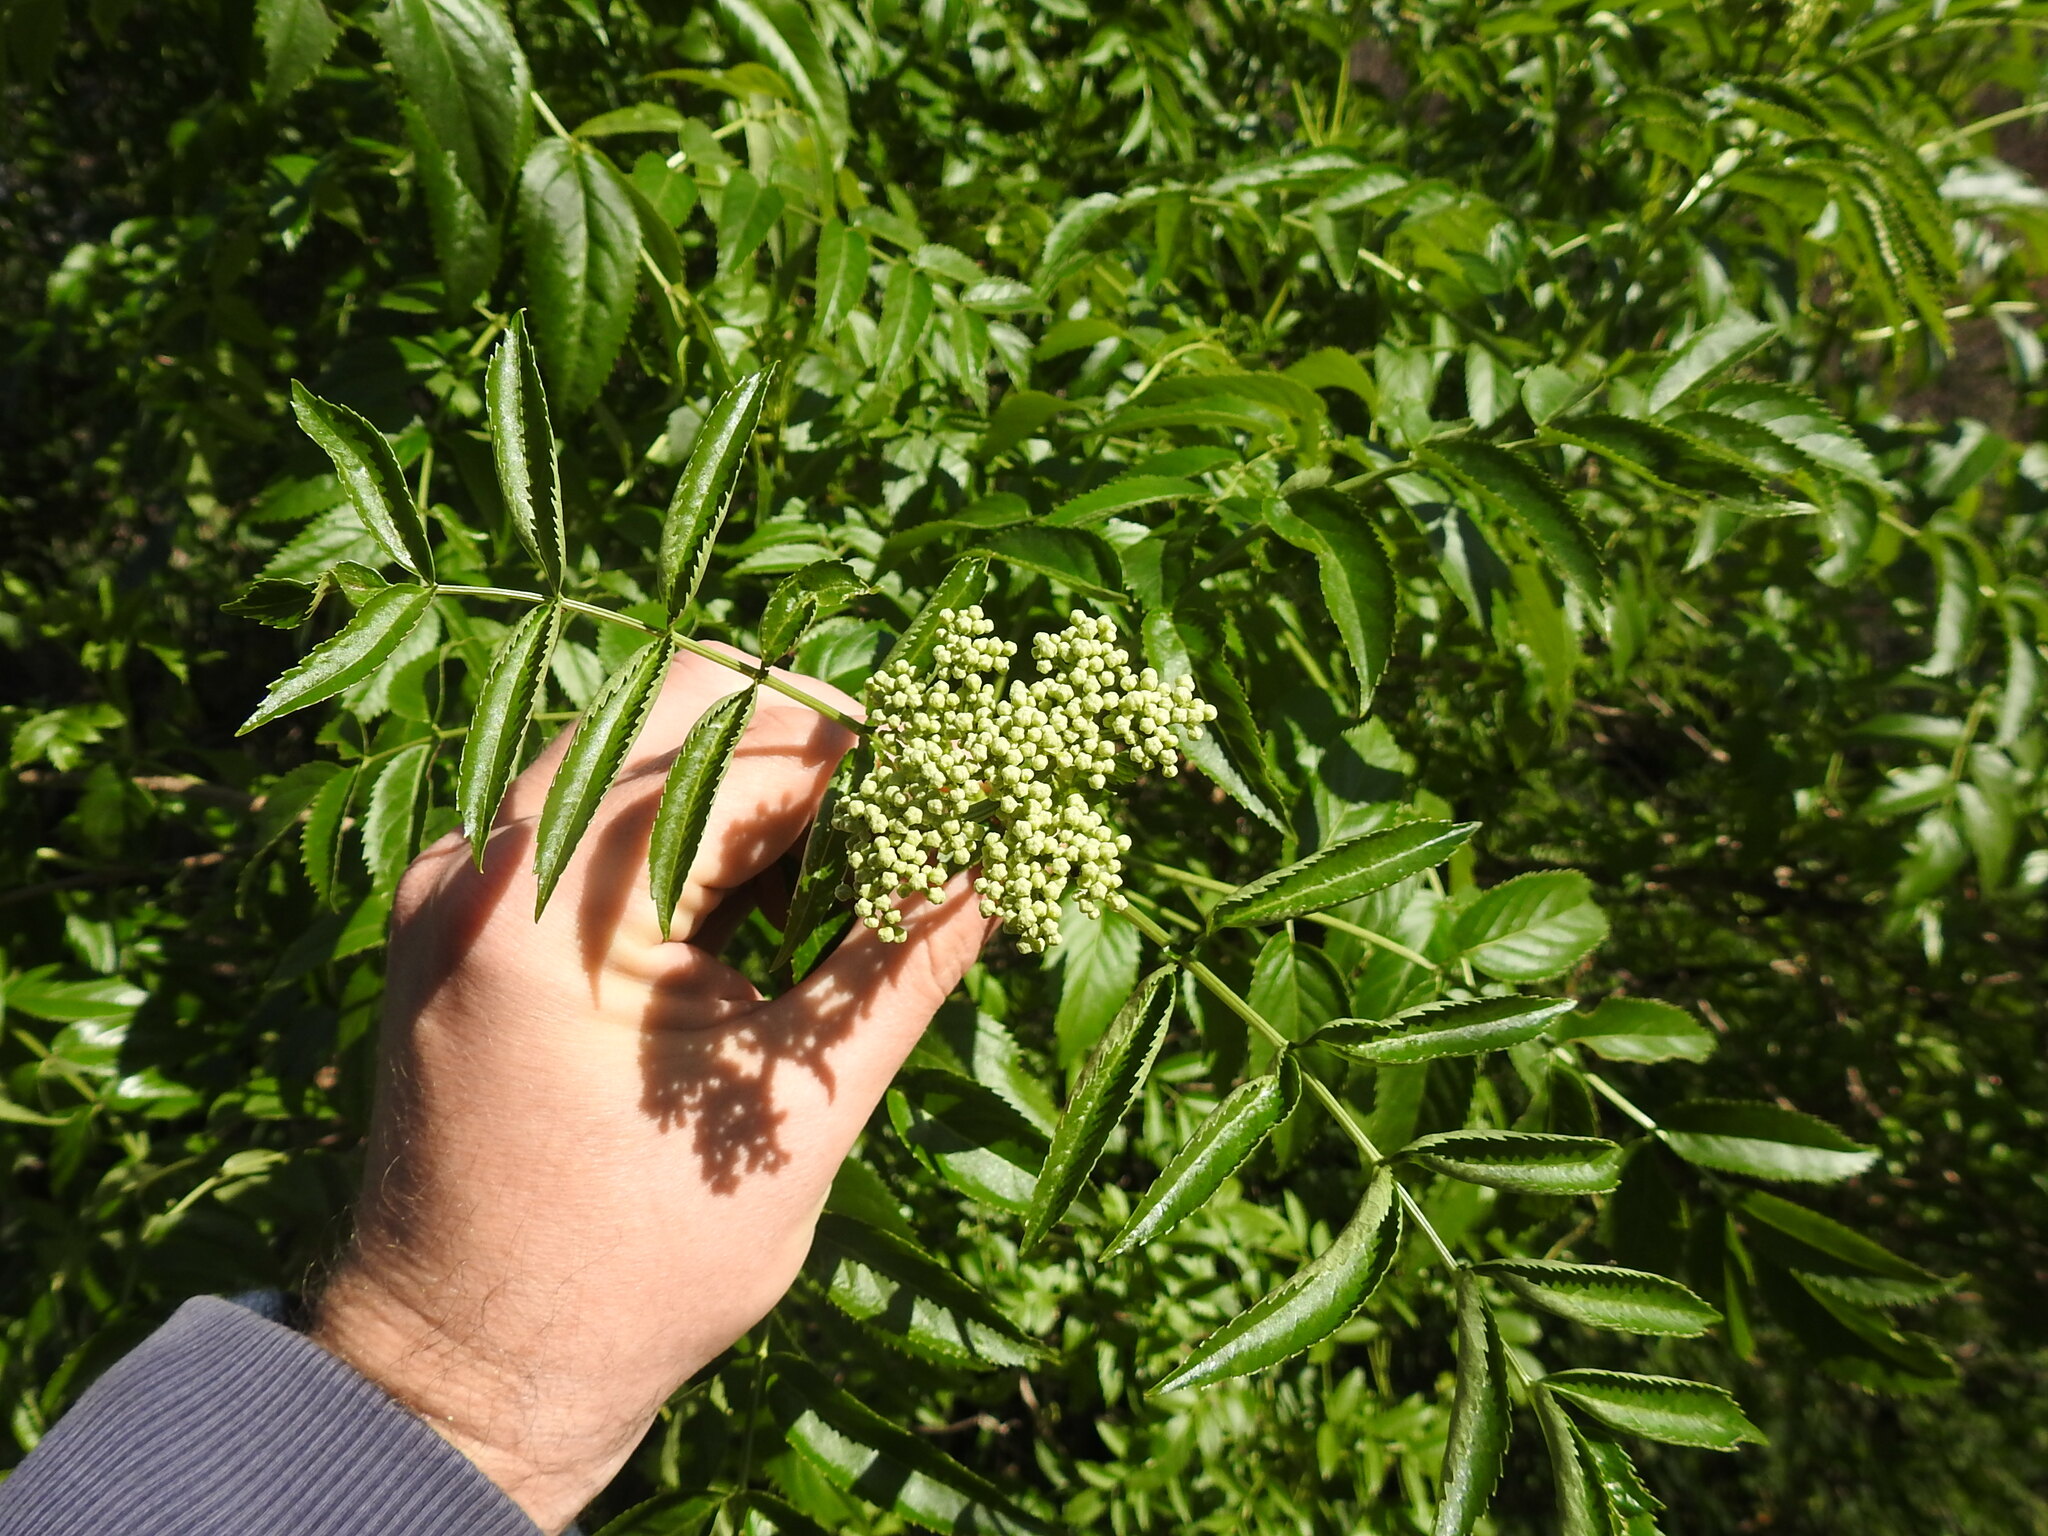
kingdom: Plantae
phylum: Tracheophyta
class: Magnoliopsida
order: Dipsacales
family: Viburnaceae
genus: Sambucus
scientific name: Sambucus australis
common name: Southern elder
